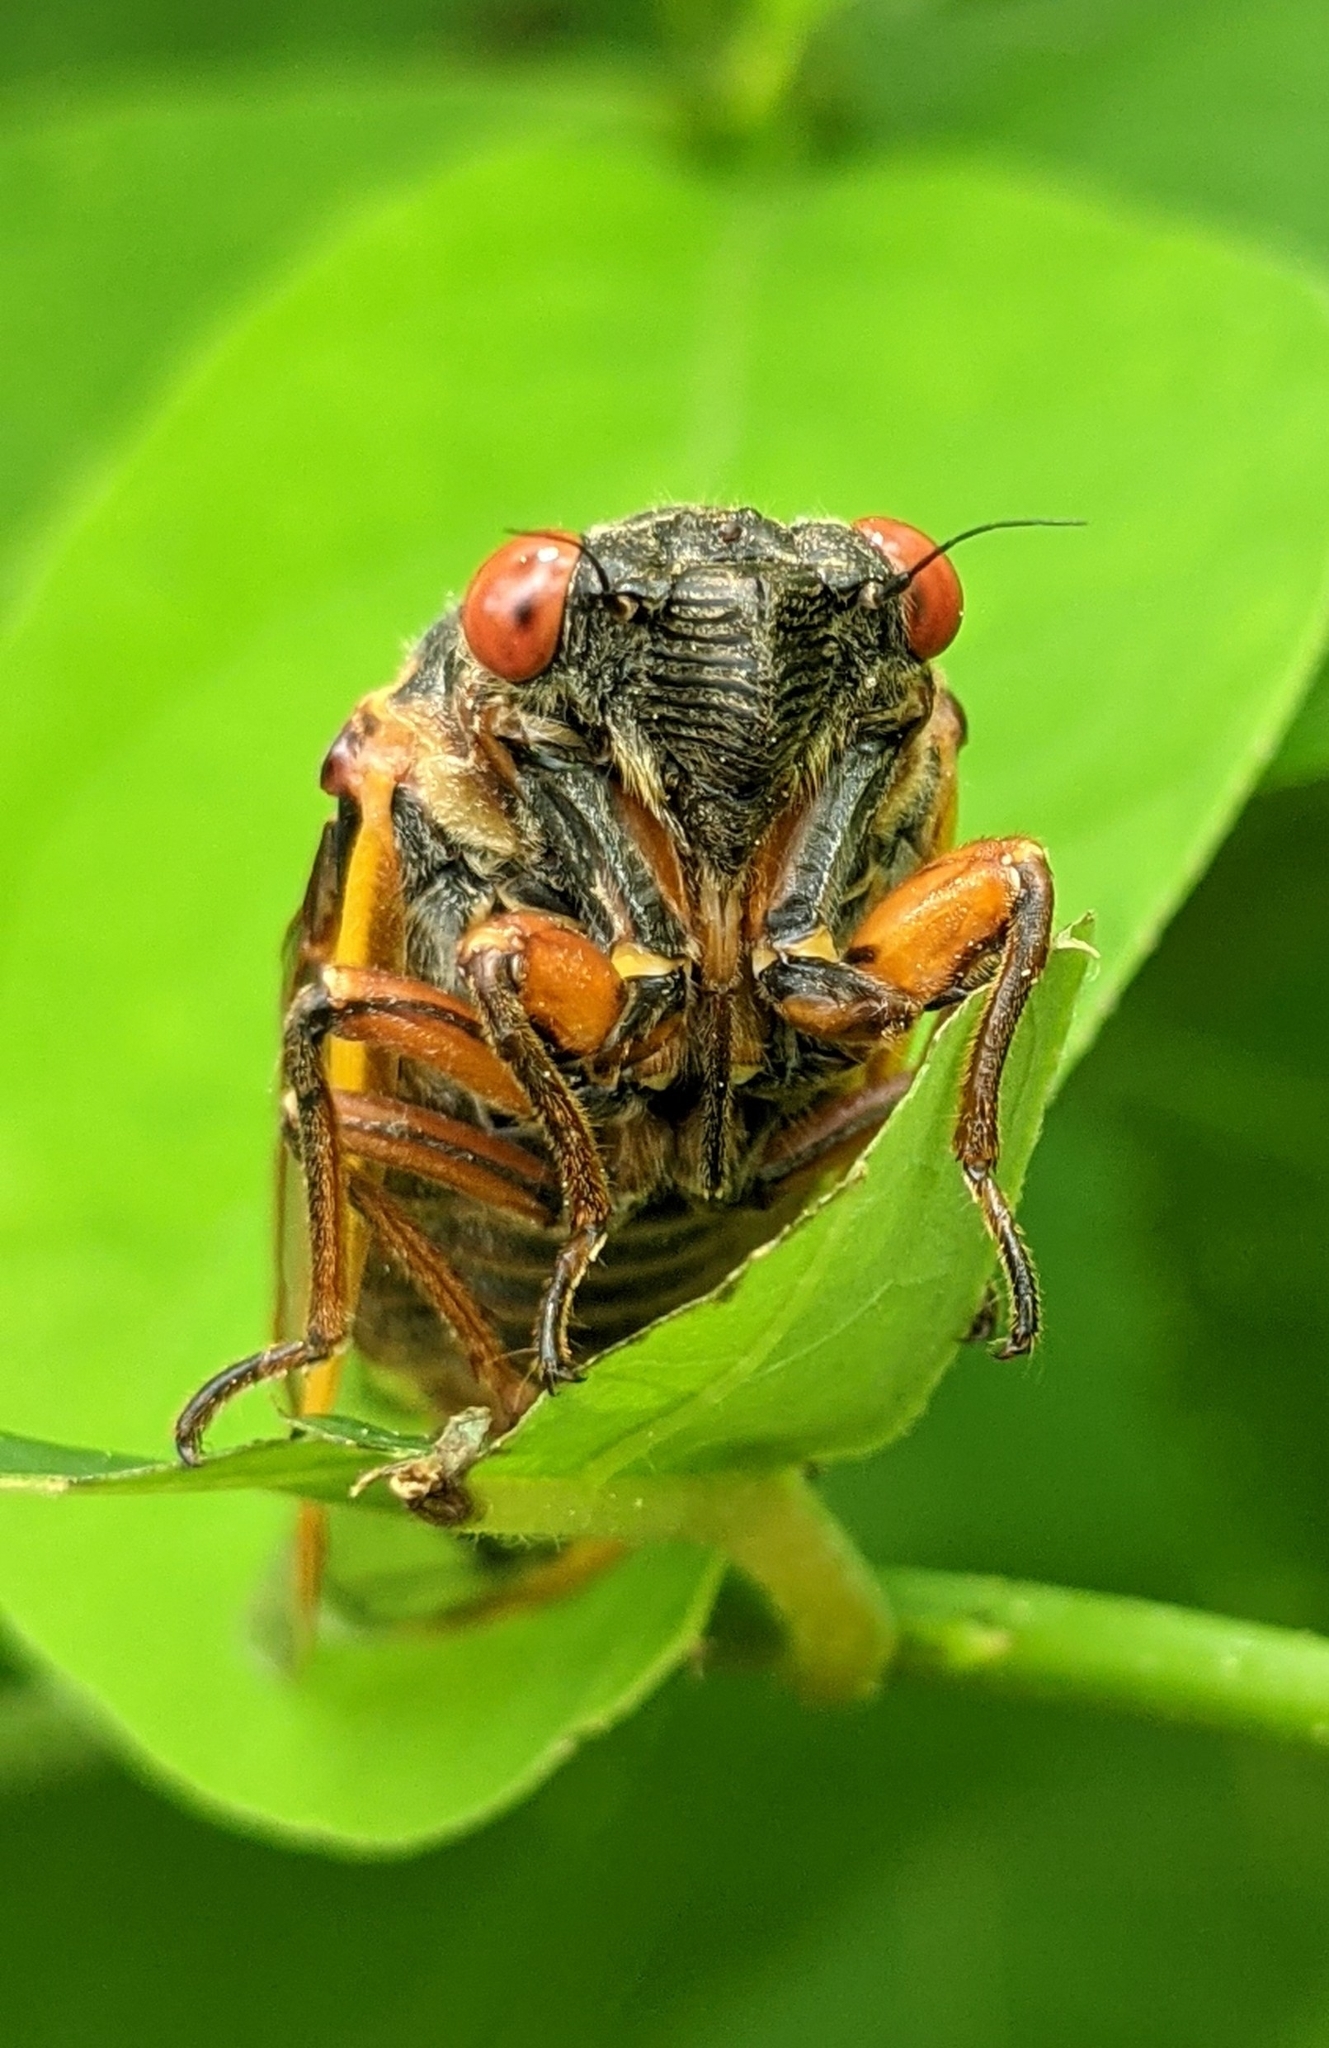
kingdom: Animalia
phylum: Arthropoda
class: Insecta
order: Hemiptera
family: Cicadidae
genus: Magicicada
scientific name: Magicicada septendecim
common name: Periodical cicada
